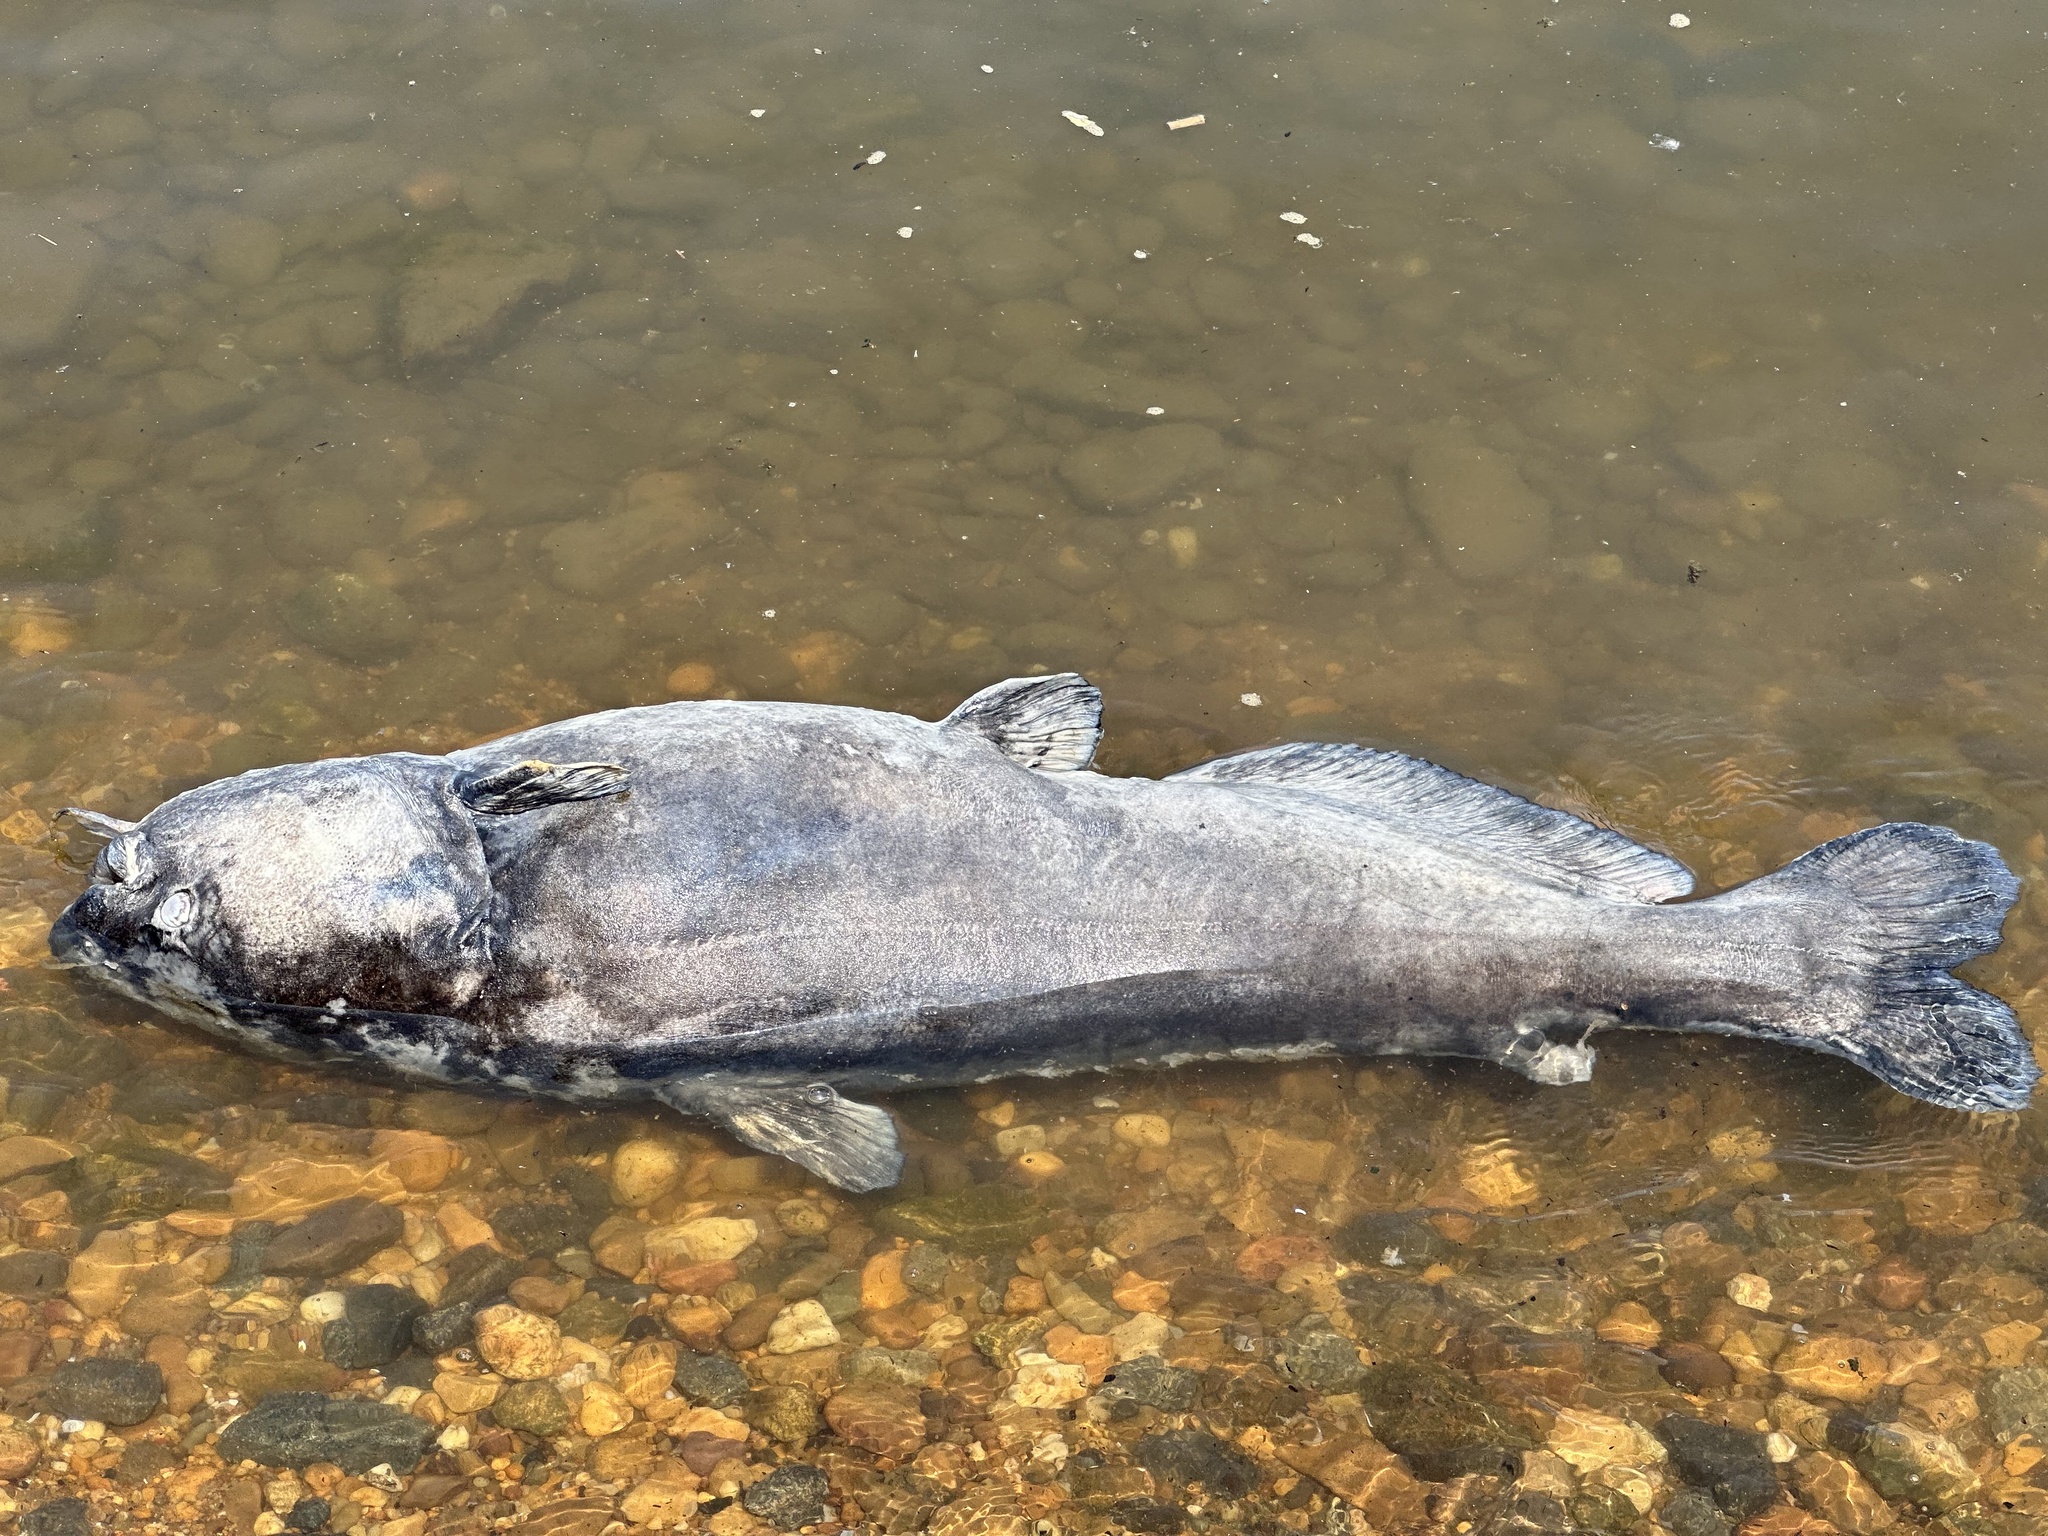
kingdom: Animalia
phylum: Chordata
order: Siluriformes
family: Ictaluridae
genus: Ictalurus
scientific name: Ictalurus furcatus
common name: Blue catfish
